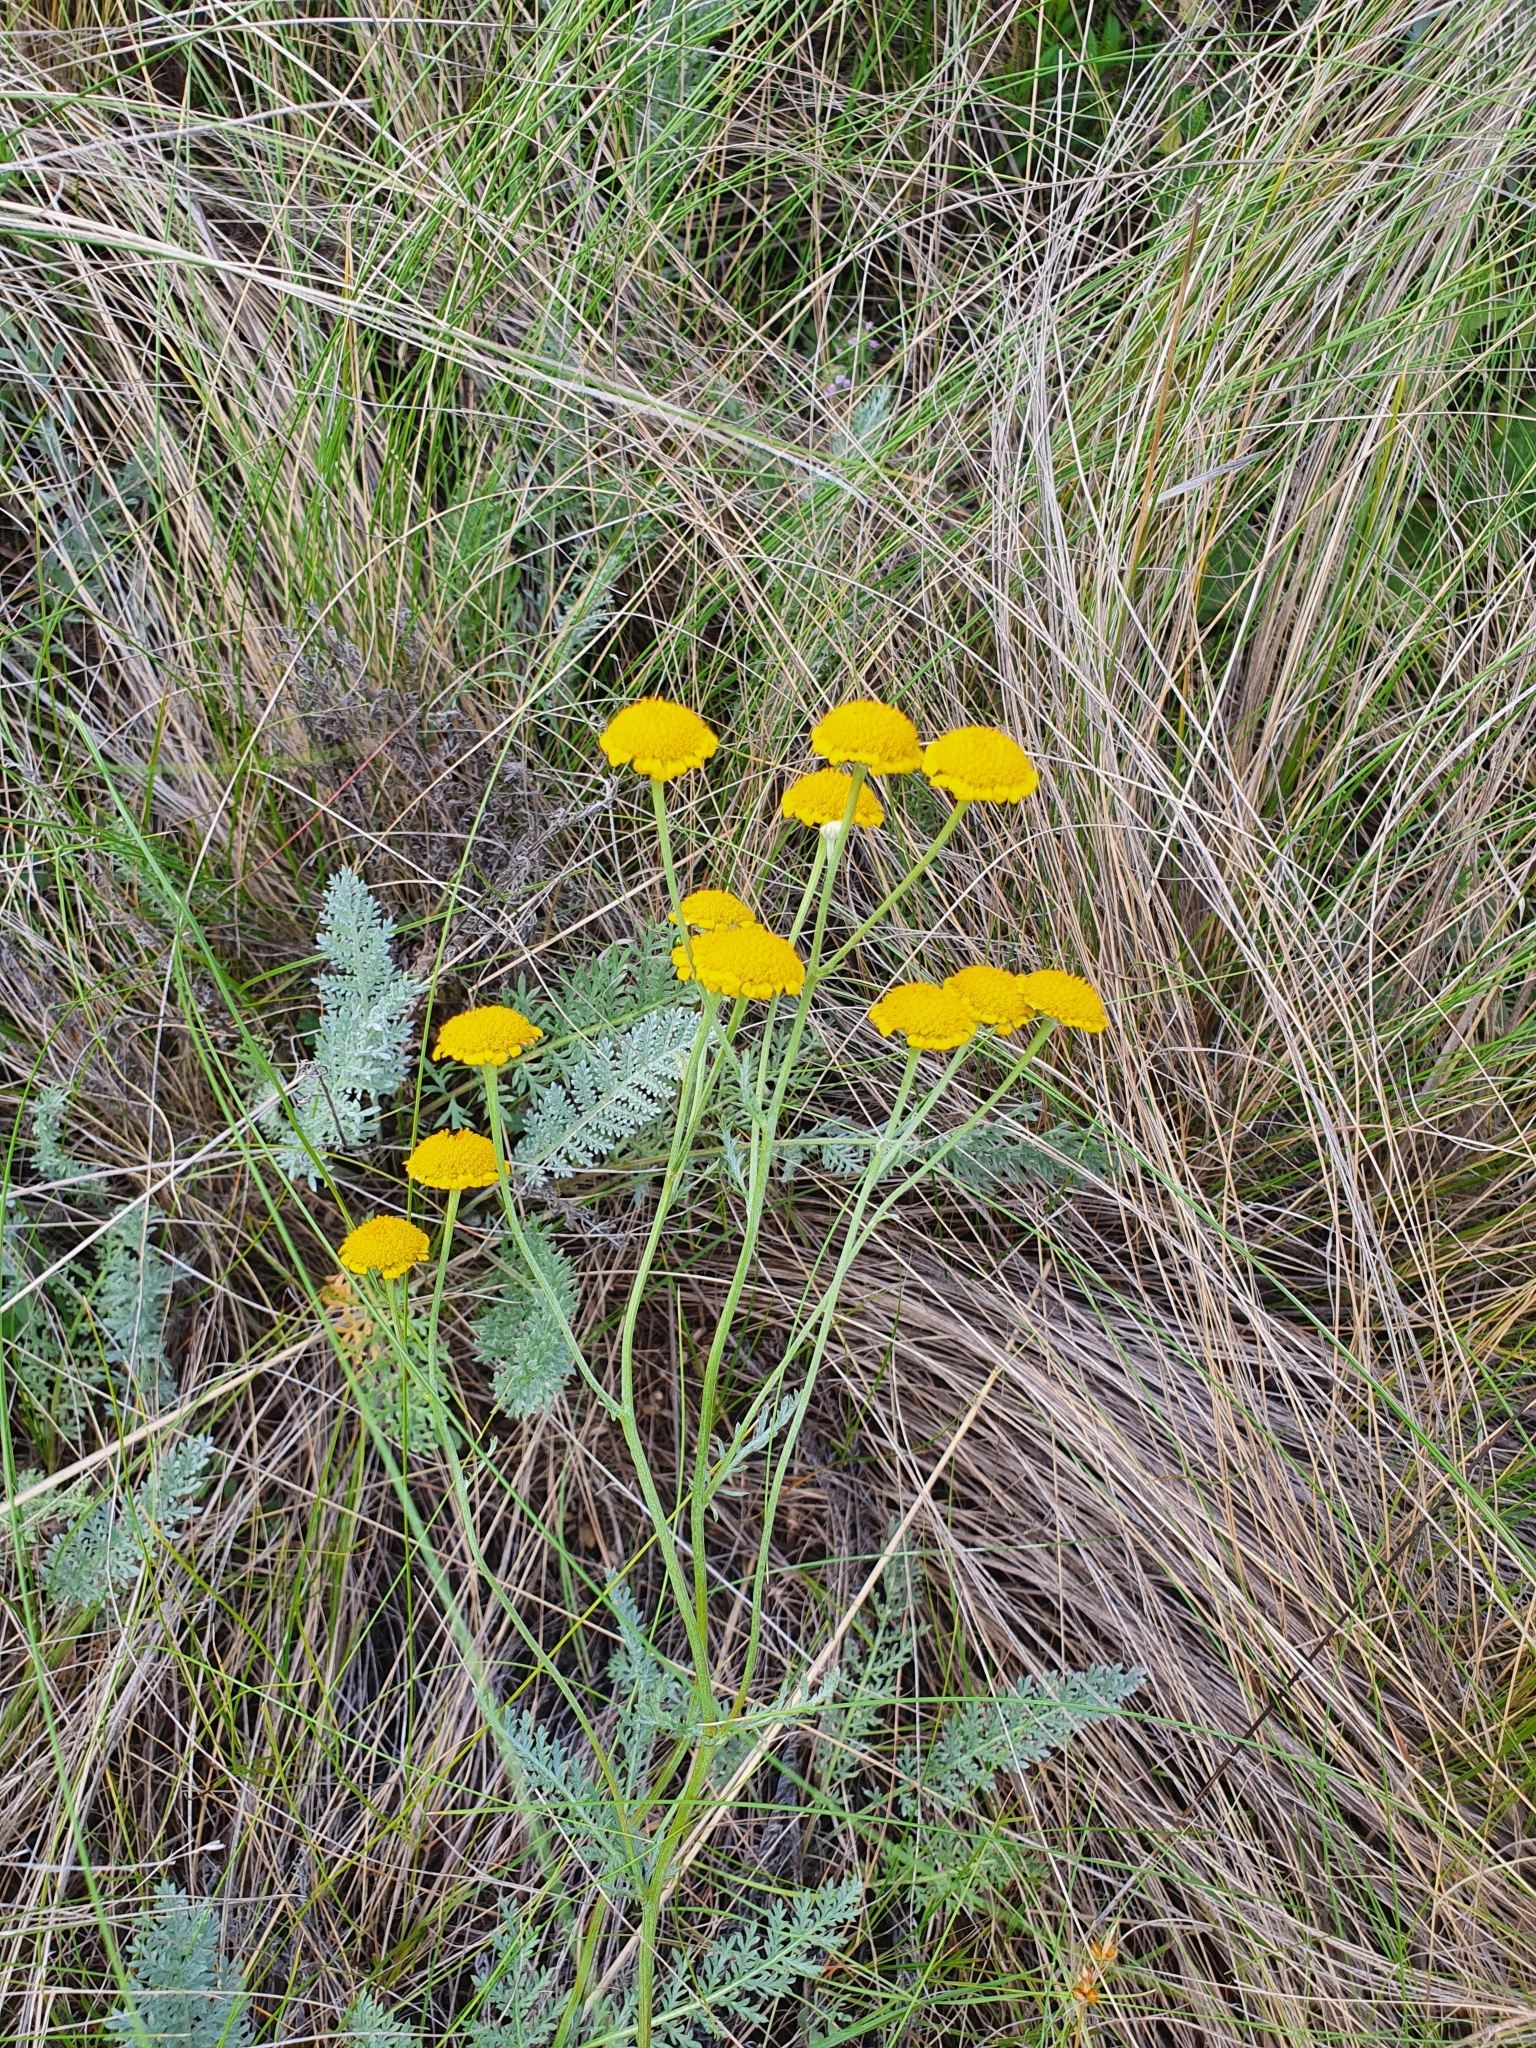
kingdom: Plantae
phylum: Tracheophyta
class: Magnoliopsida
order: Asterales
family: Asteraceae
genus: Tanacetum
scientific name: Tanacetum millefolium
